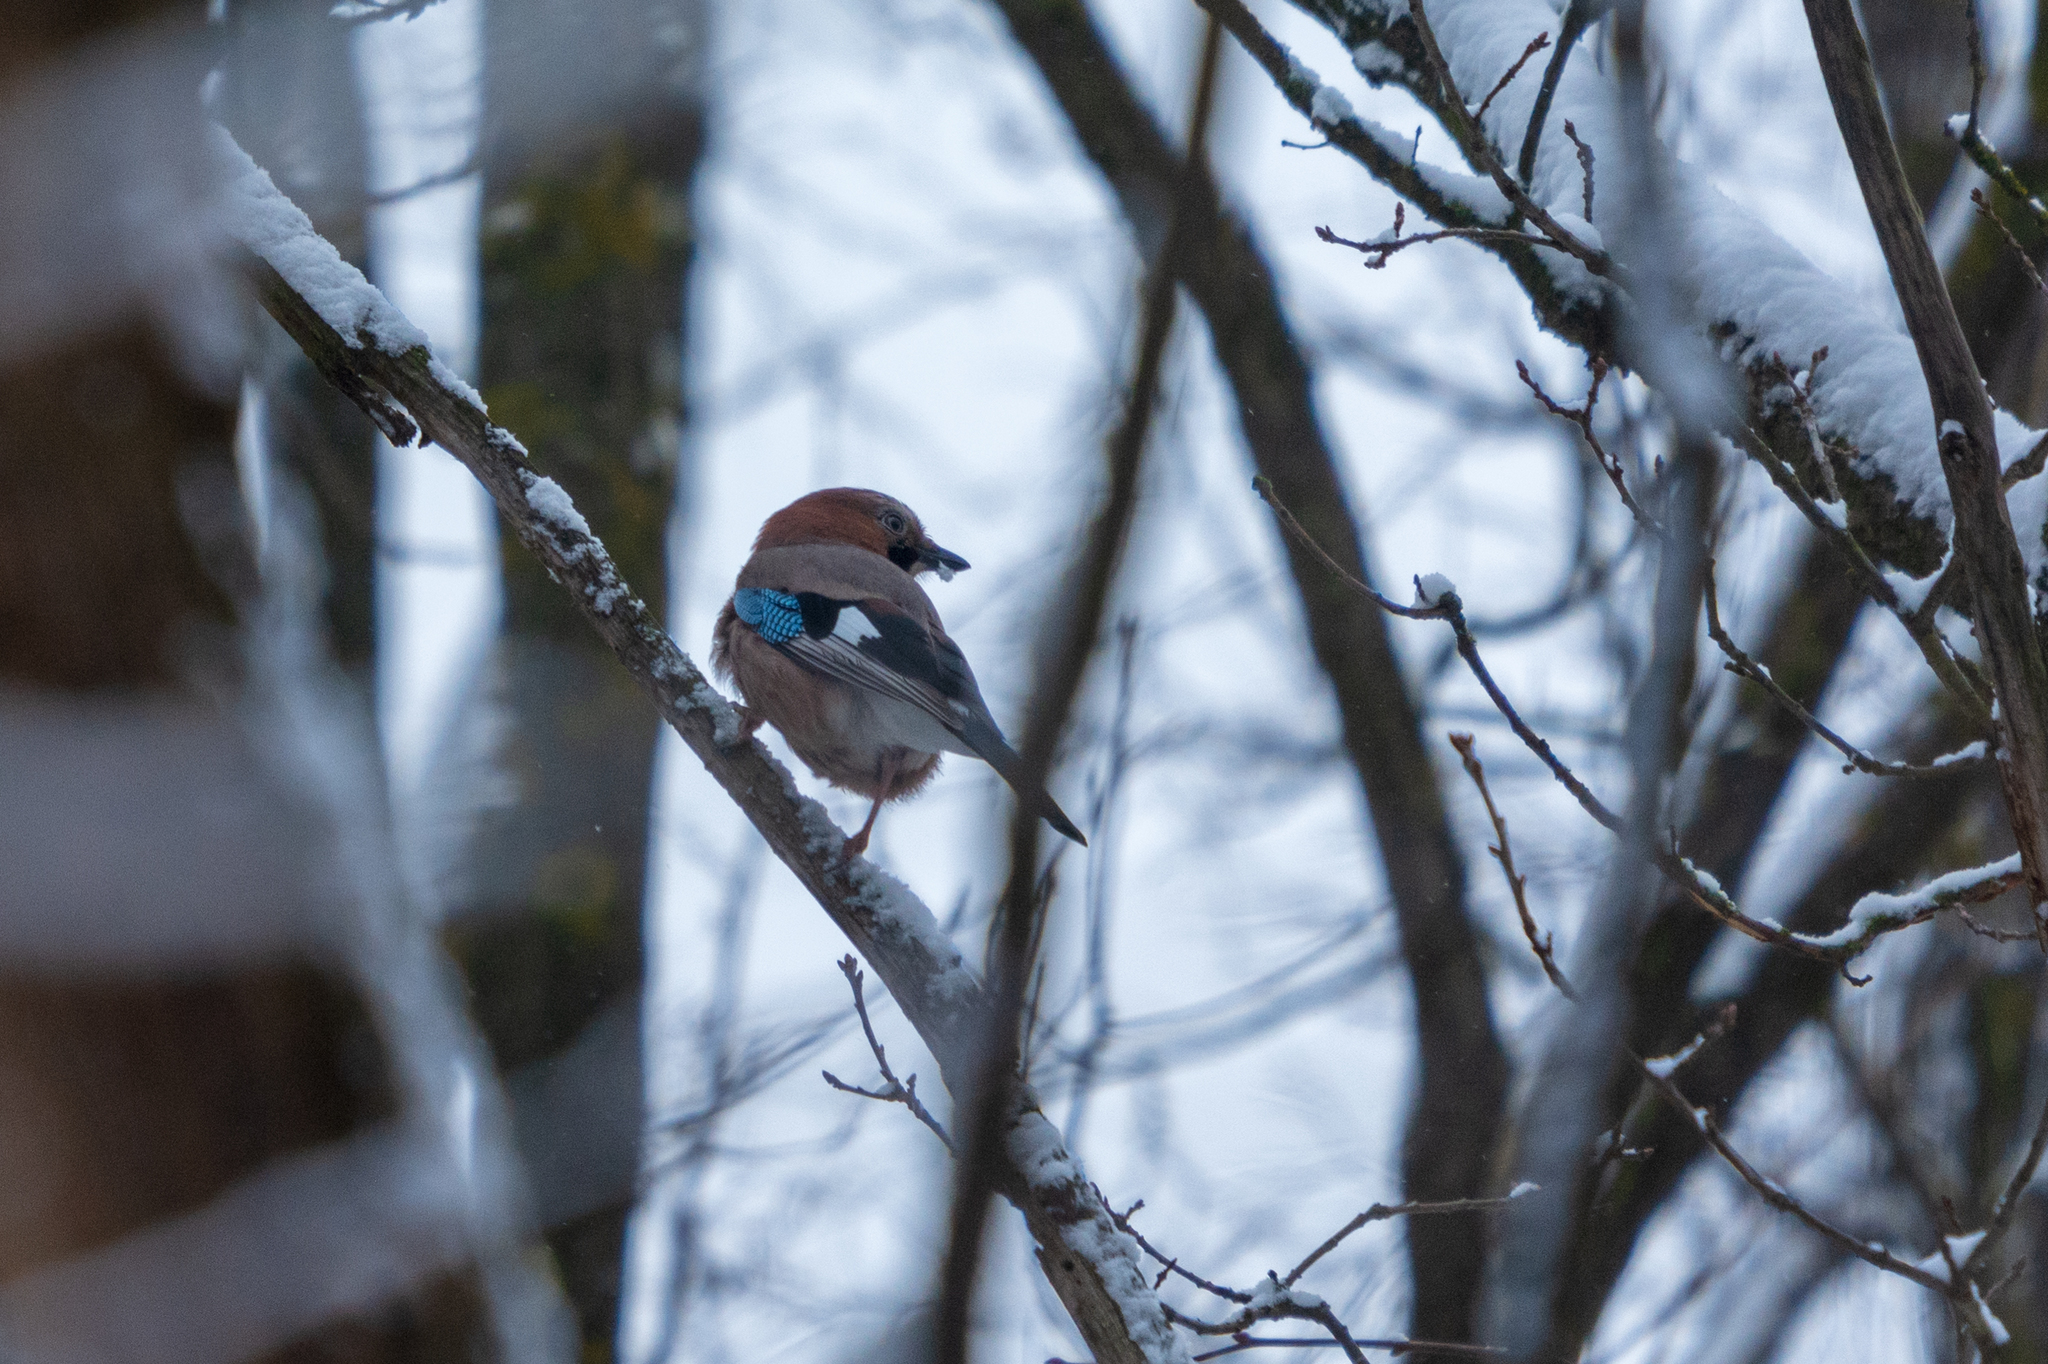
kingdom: Animalia
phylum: Chordata
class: Aves
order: Passeriformes
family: Corvidae
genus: Garrulus
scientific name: Garrulus glandarius
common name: Eurasian jay
